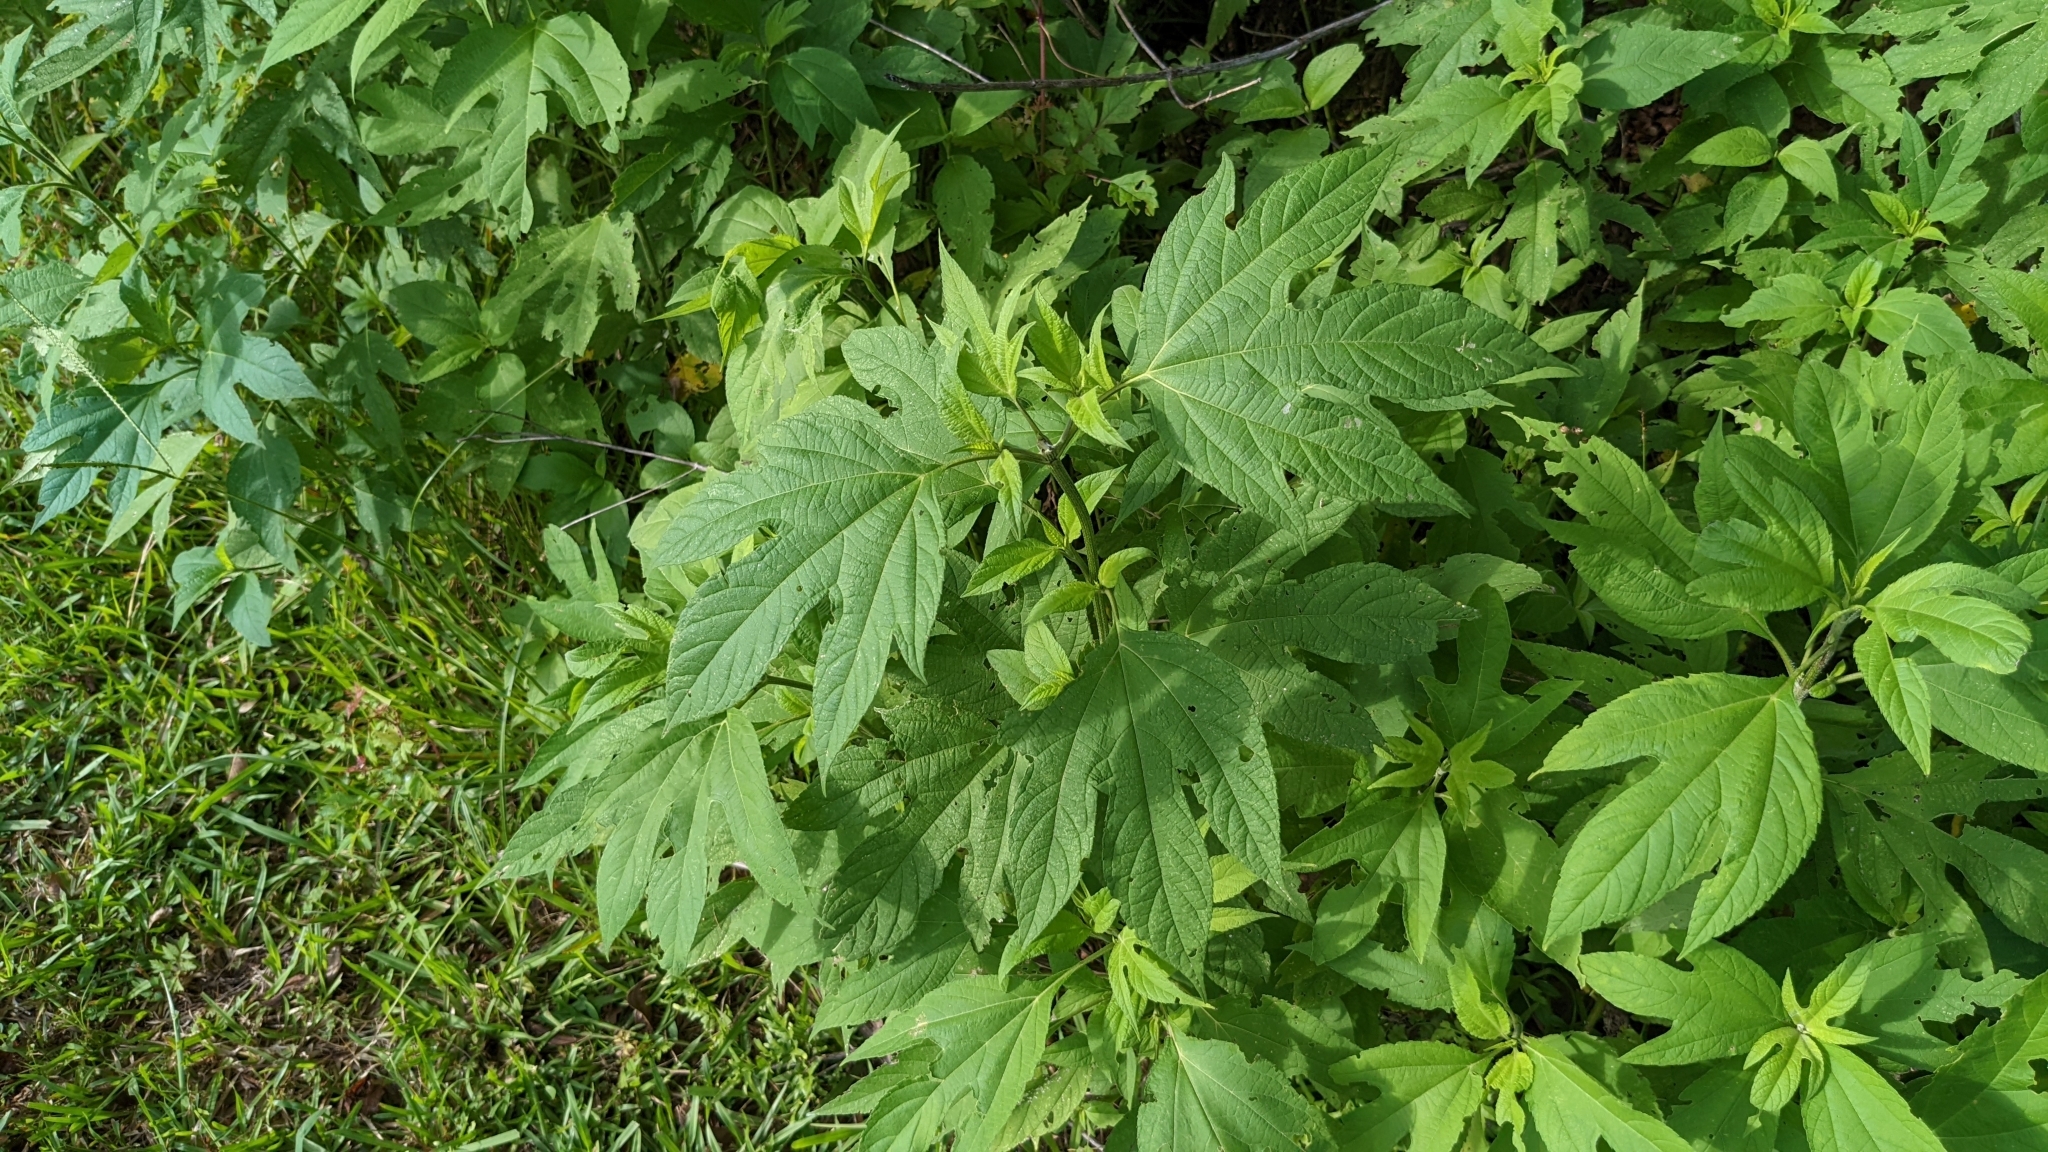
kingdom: Plantae
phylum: Tracheophyta
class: Magnoliopsida
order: Asterales
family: Asteraceae
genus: Ambrosia
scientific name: Ambrosia trifida
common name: Giant ragweed
